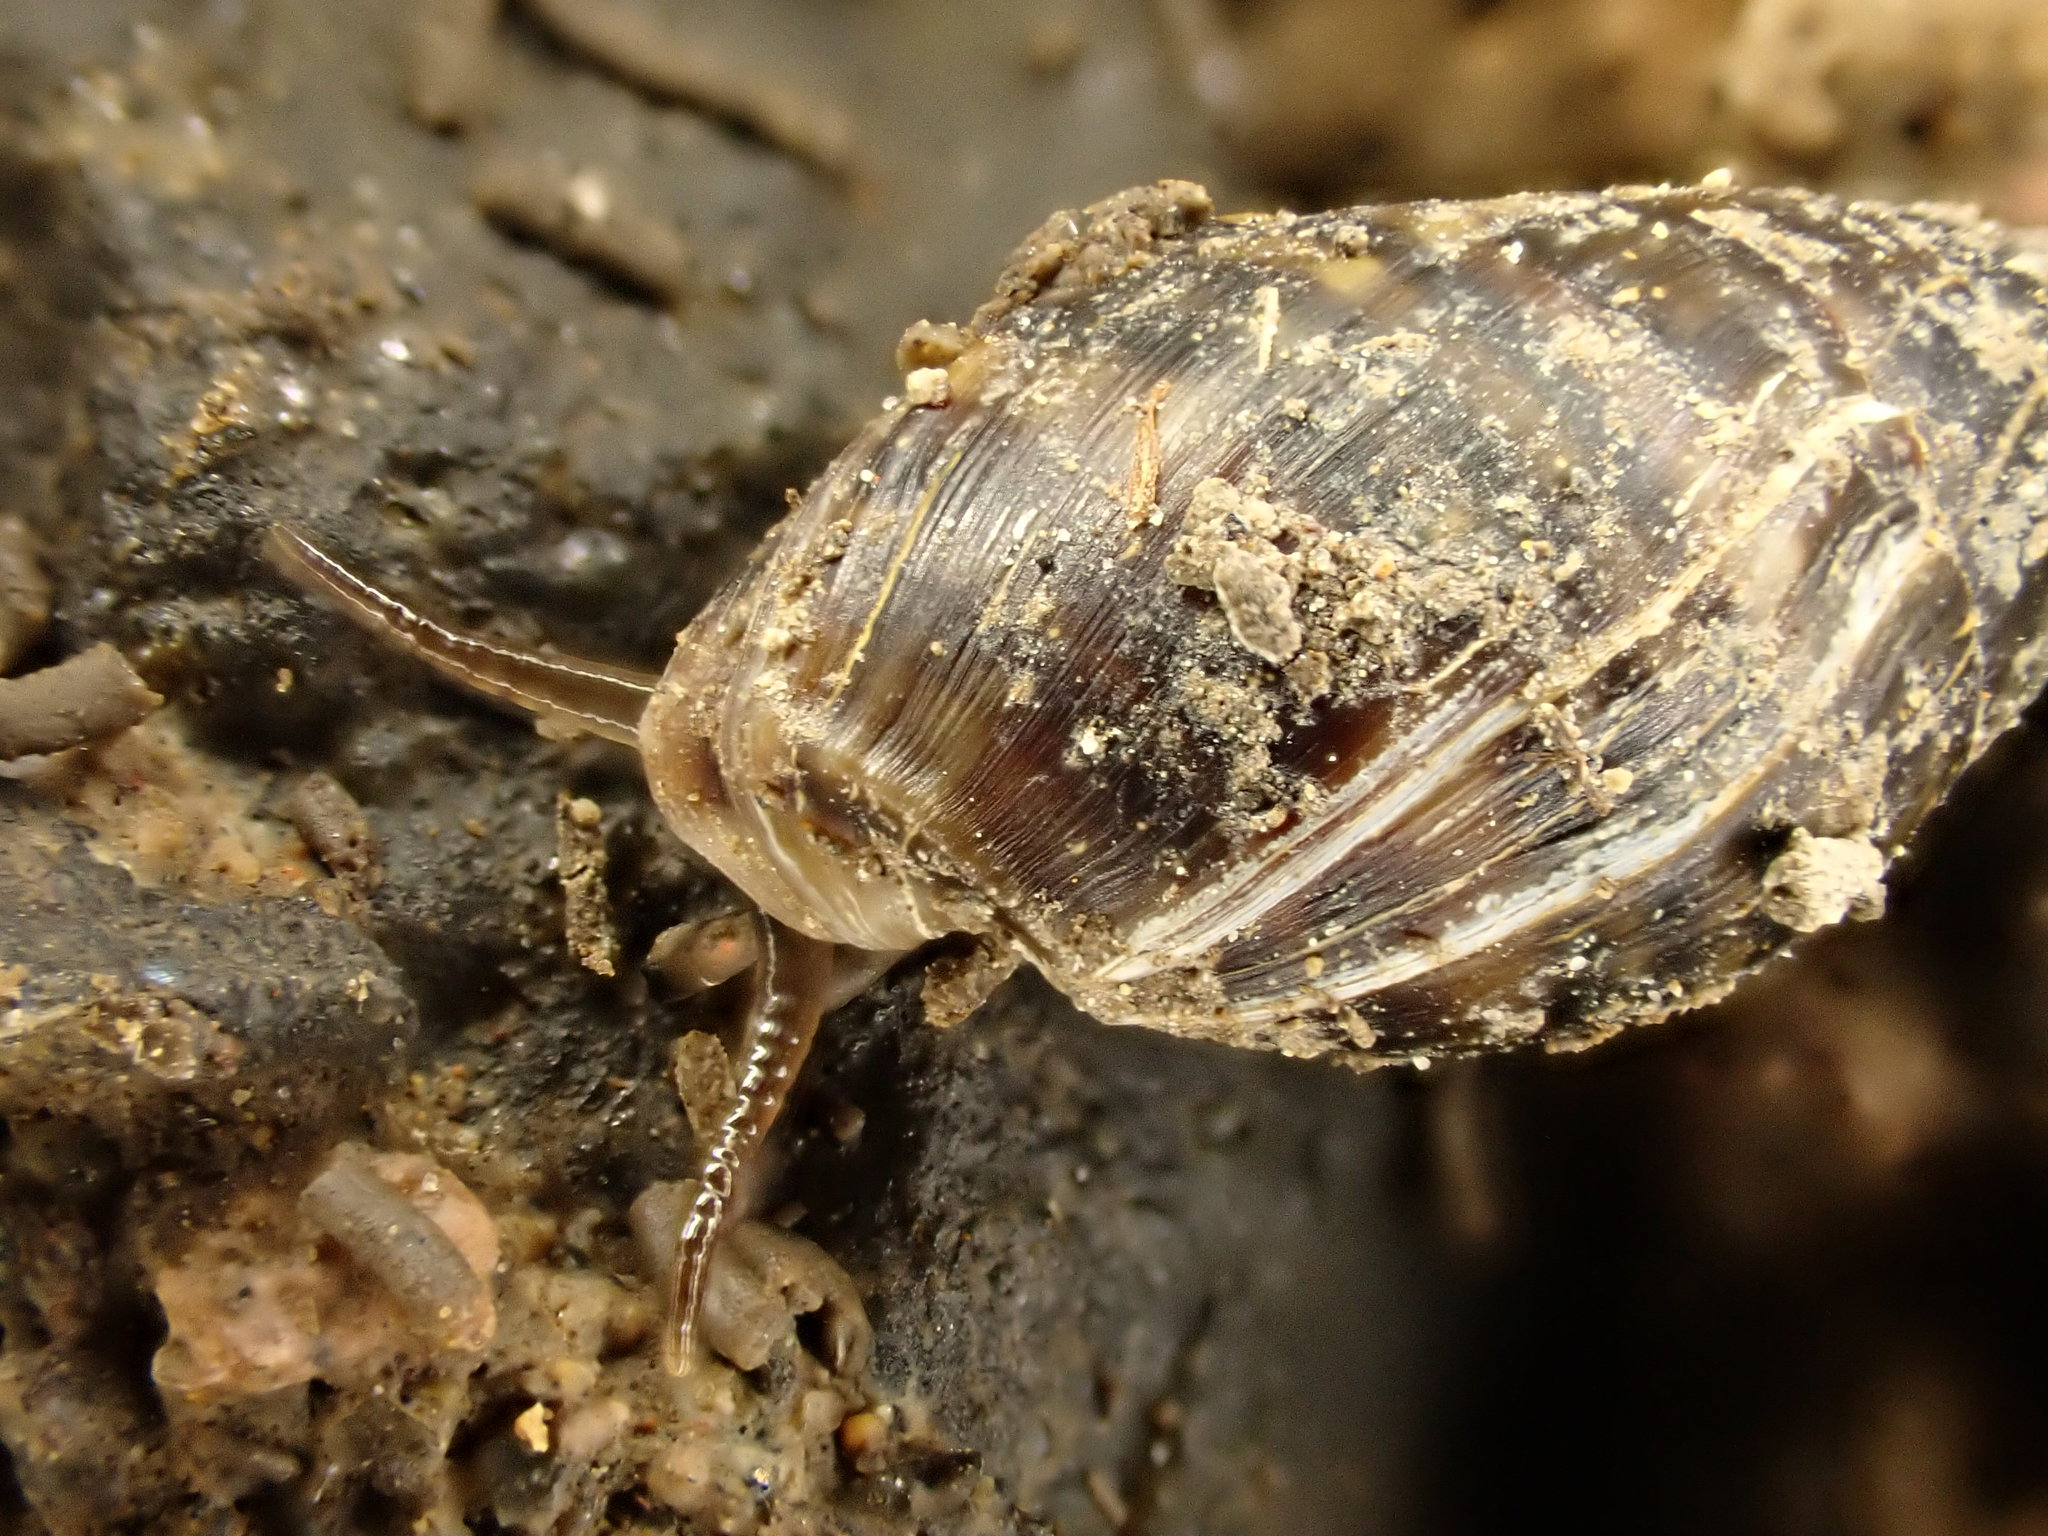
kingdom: Animalia
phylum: Mollusca
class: Gastropoda
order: Ellobiida
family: Ellobiidae
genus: Pleuroloba
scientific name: Pleuroloba costellaris
